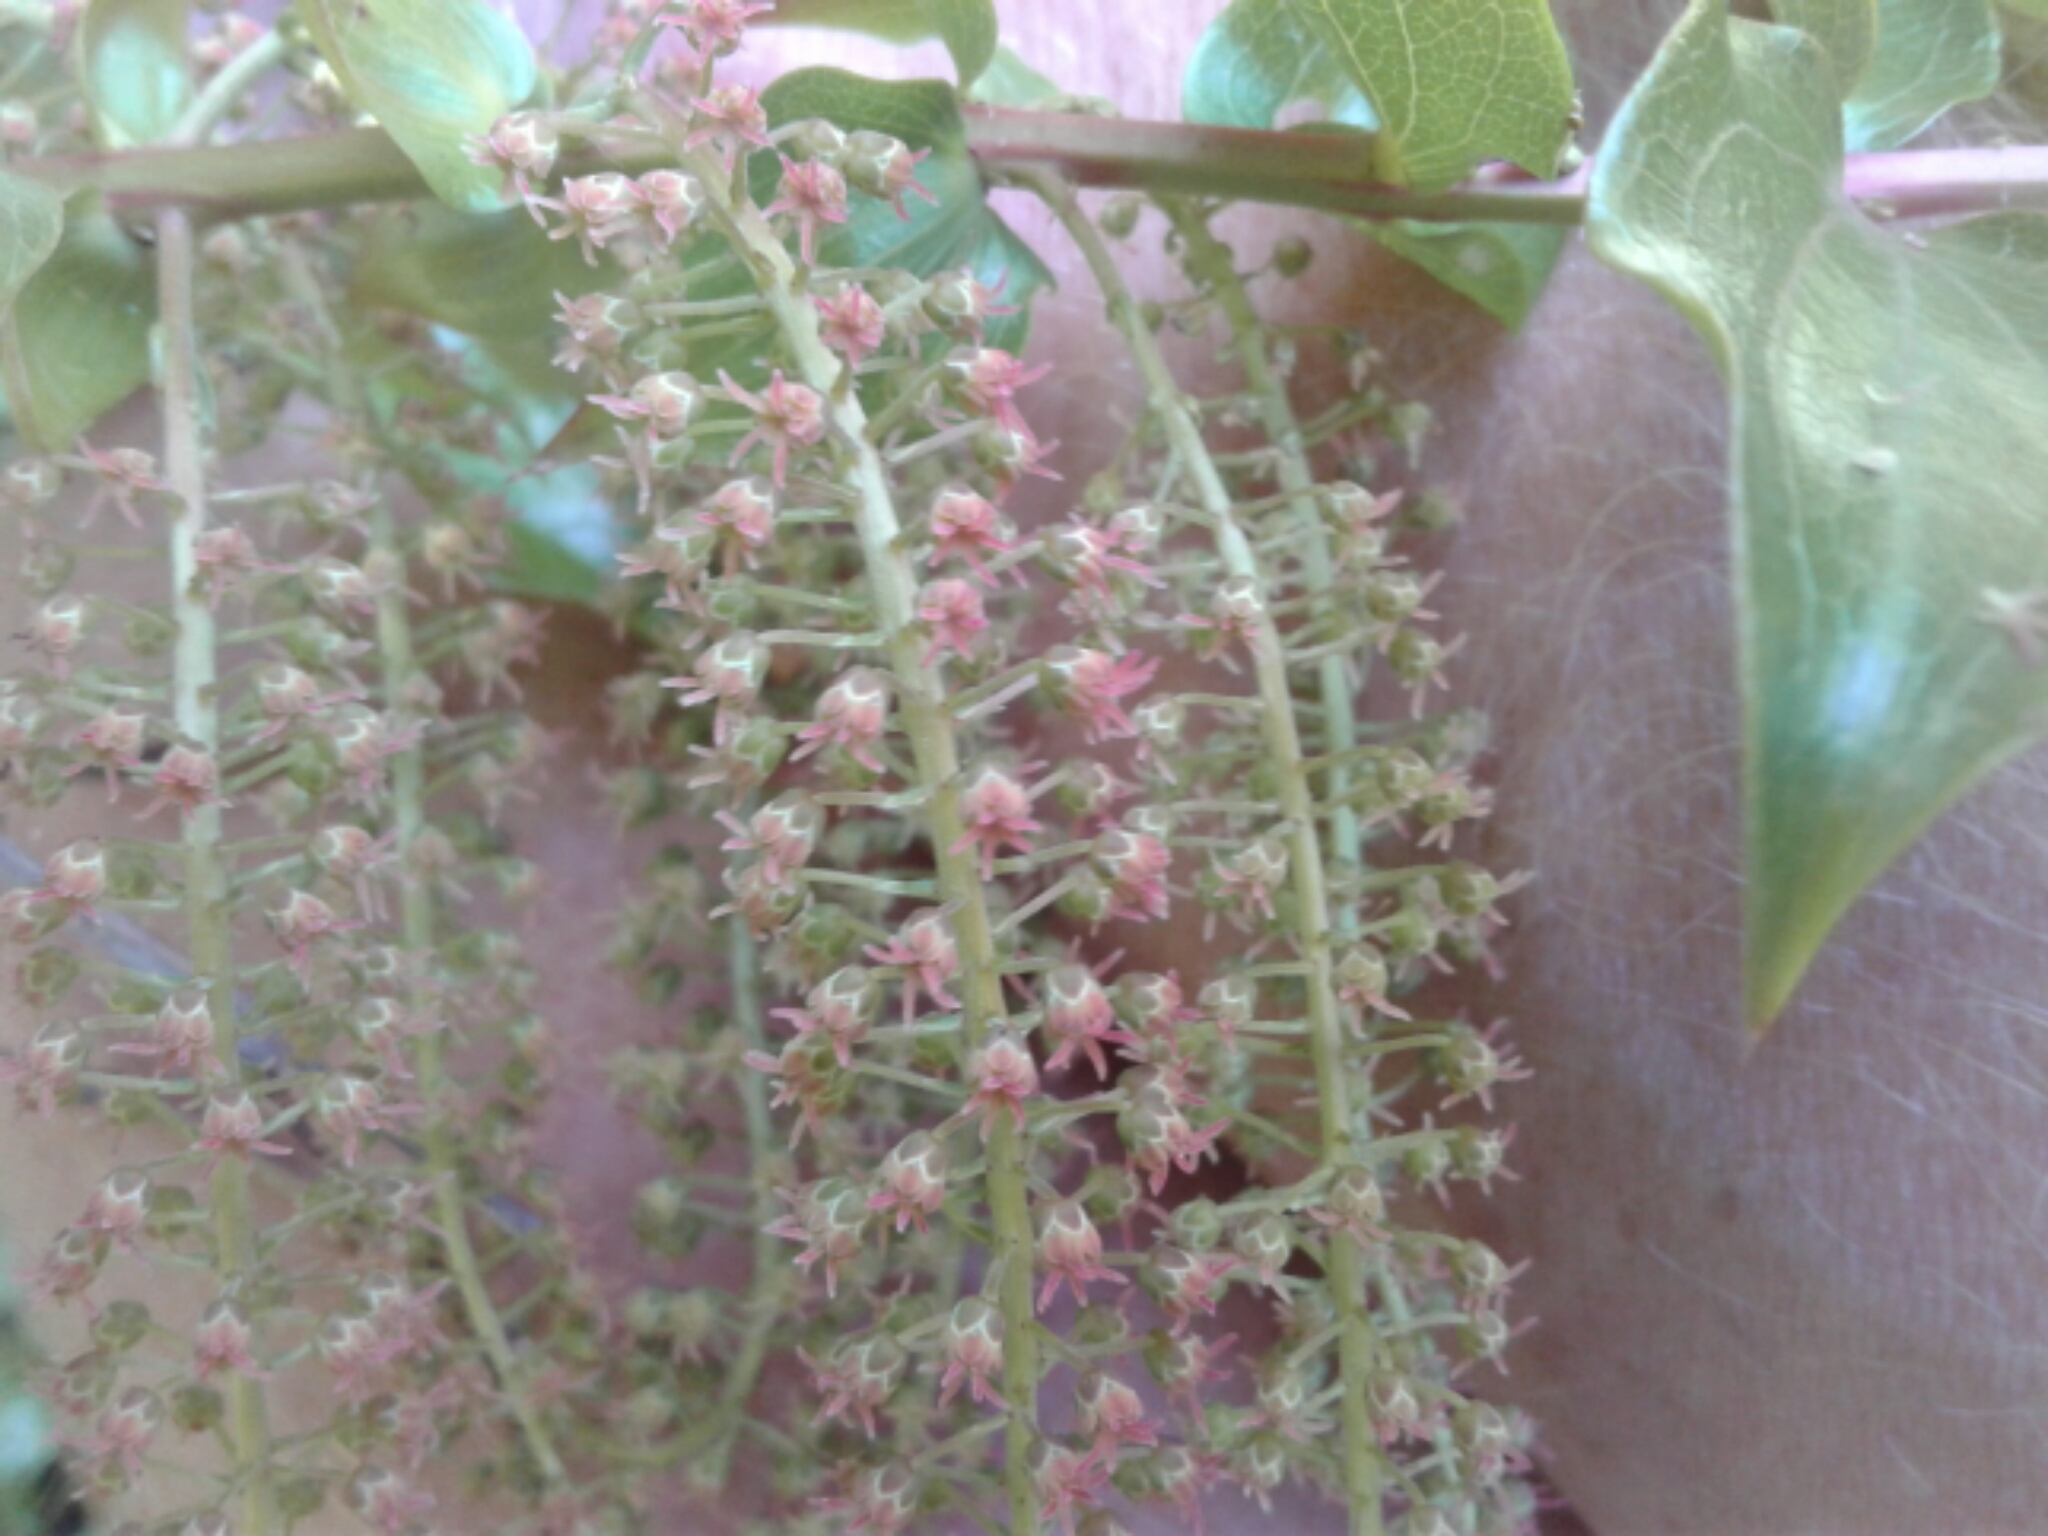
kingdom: Plantae
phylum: Tracheophyta
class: Magnoliopsida
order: Cucurbitales
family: Coriariaceae
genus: Coriaria
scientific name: Coriaria arborea
